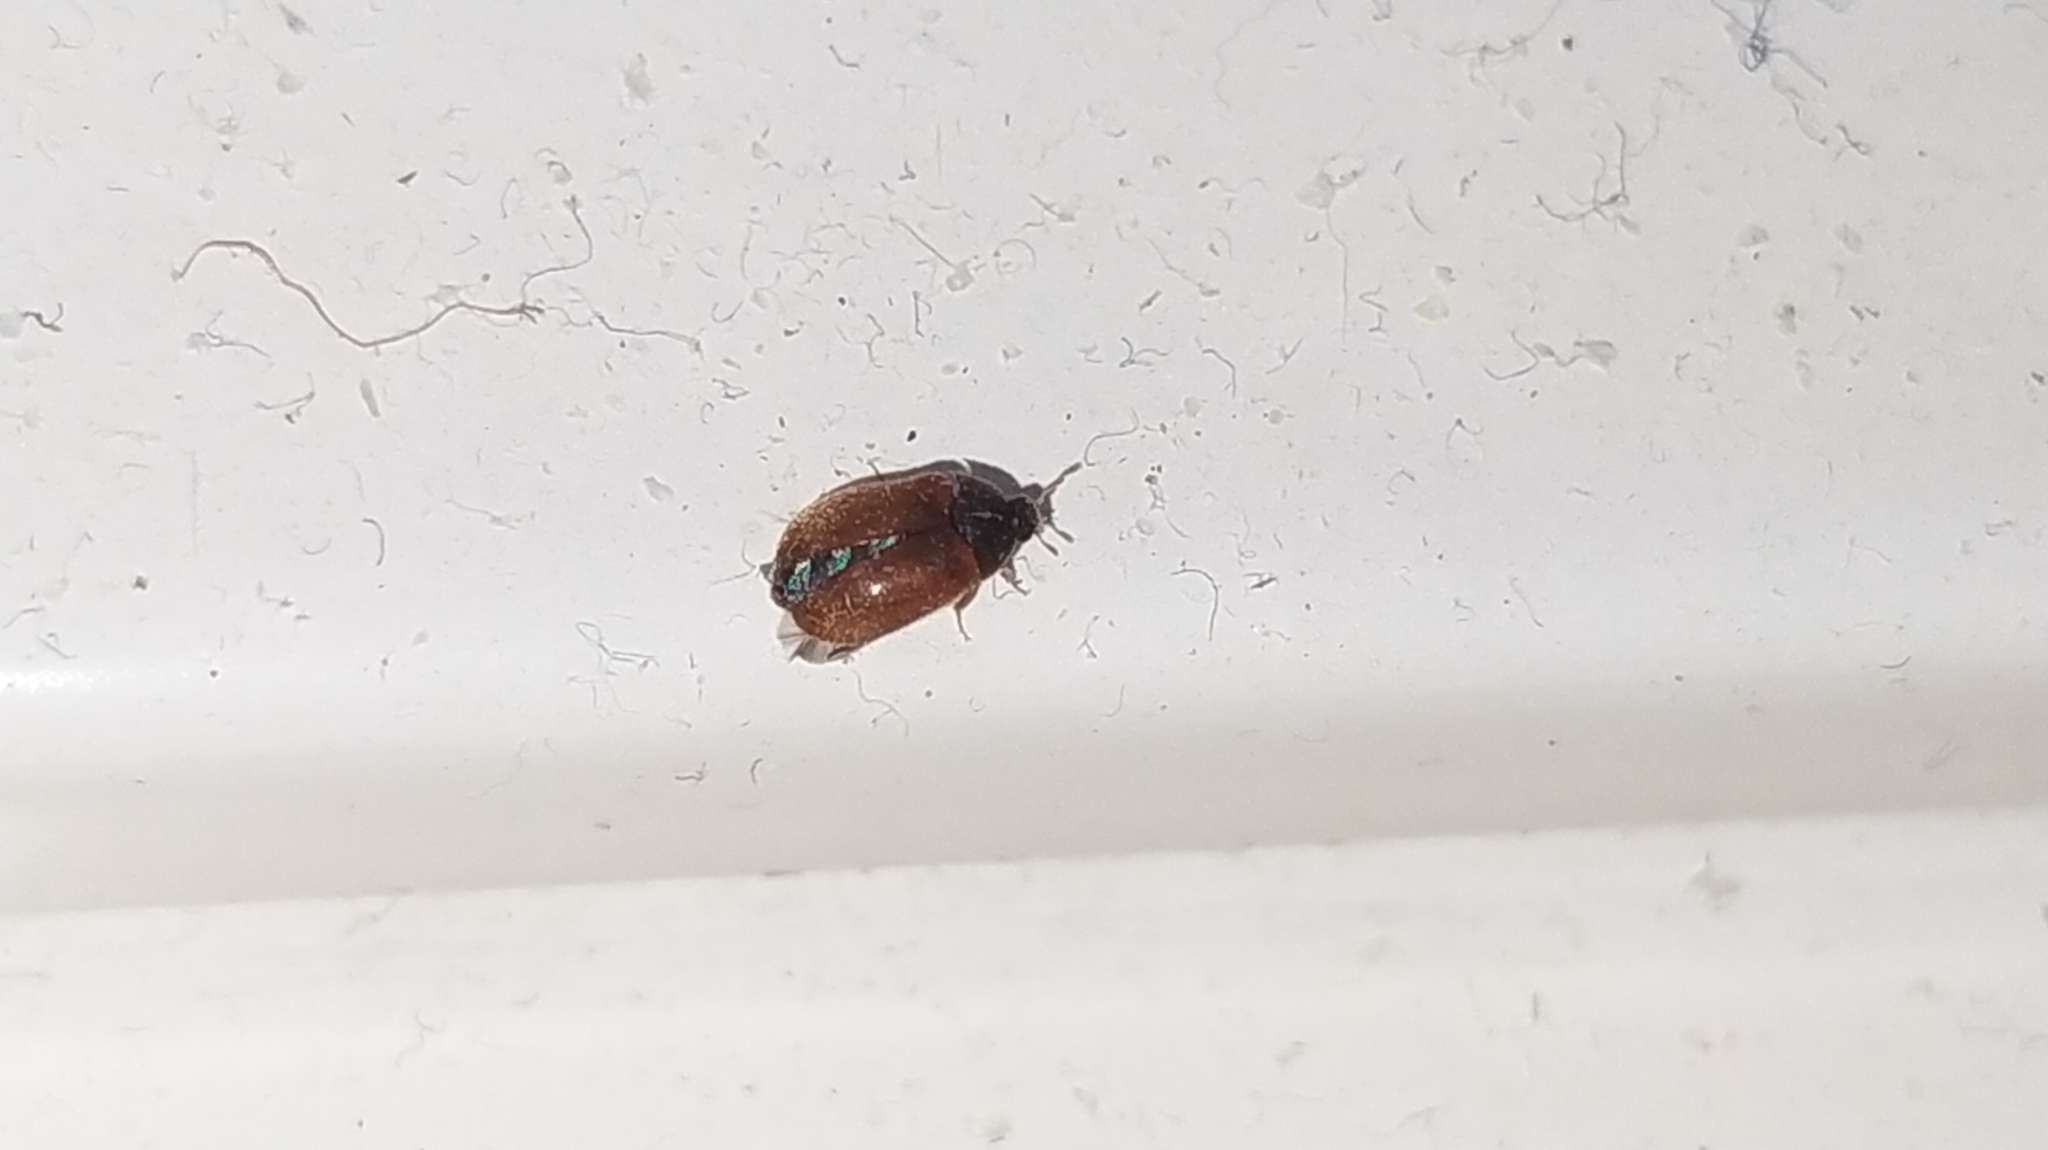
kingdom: Animalia
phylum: Arthropoda
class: Insecta
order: Coleoptera
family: Dermestidae
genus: Attagenus
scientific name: Attagenus smirnovi
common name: Brown carpet beetle
